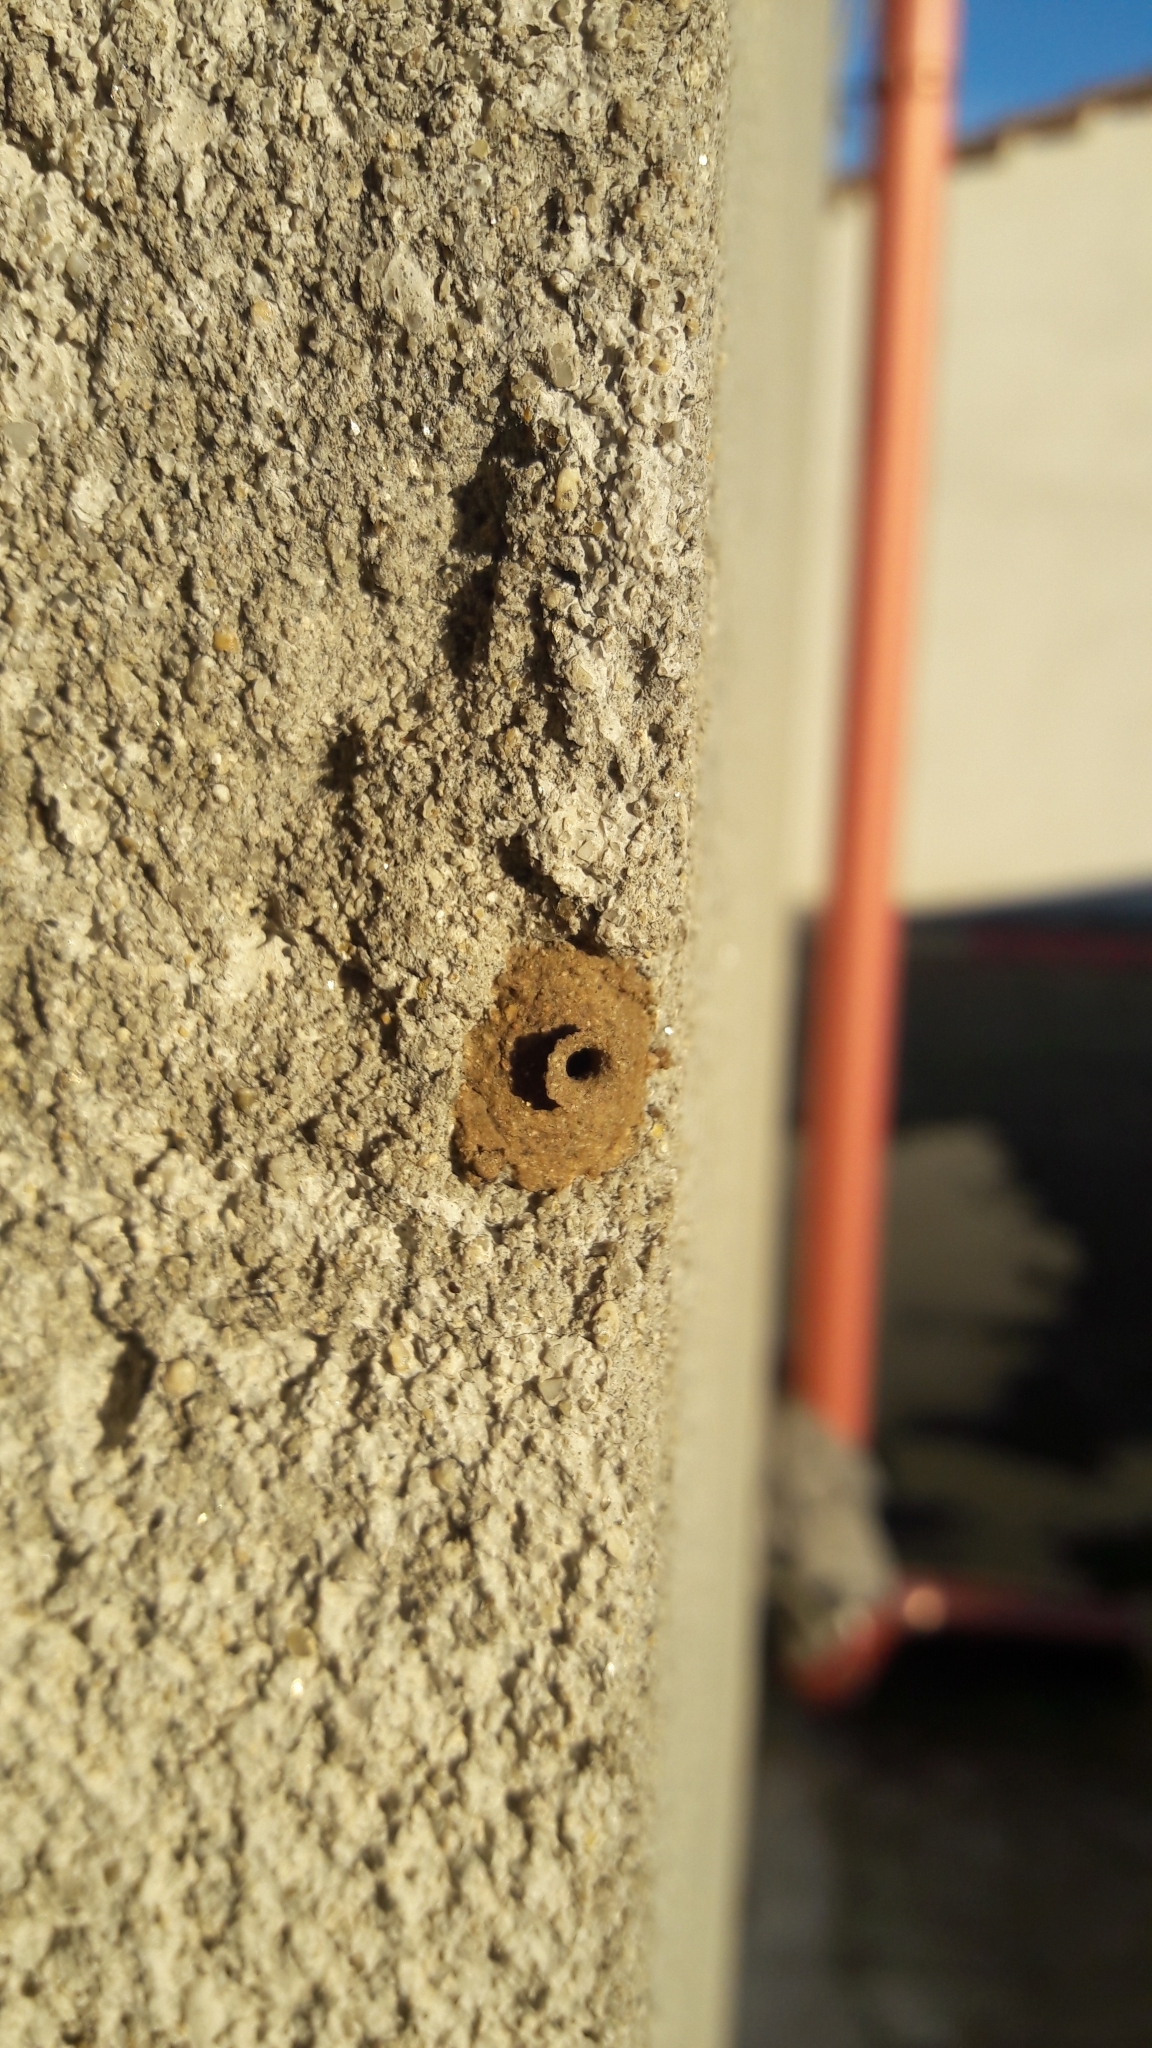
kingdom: Animalia
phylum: Arthropoda
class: Insecta
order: Hymenoptera
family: Eumenidae
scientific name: Eumenidae
